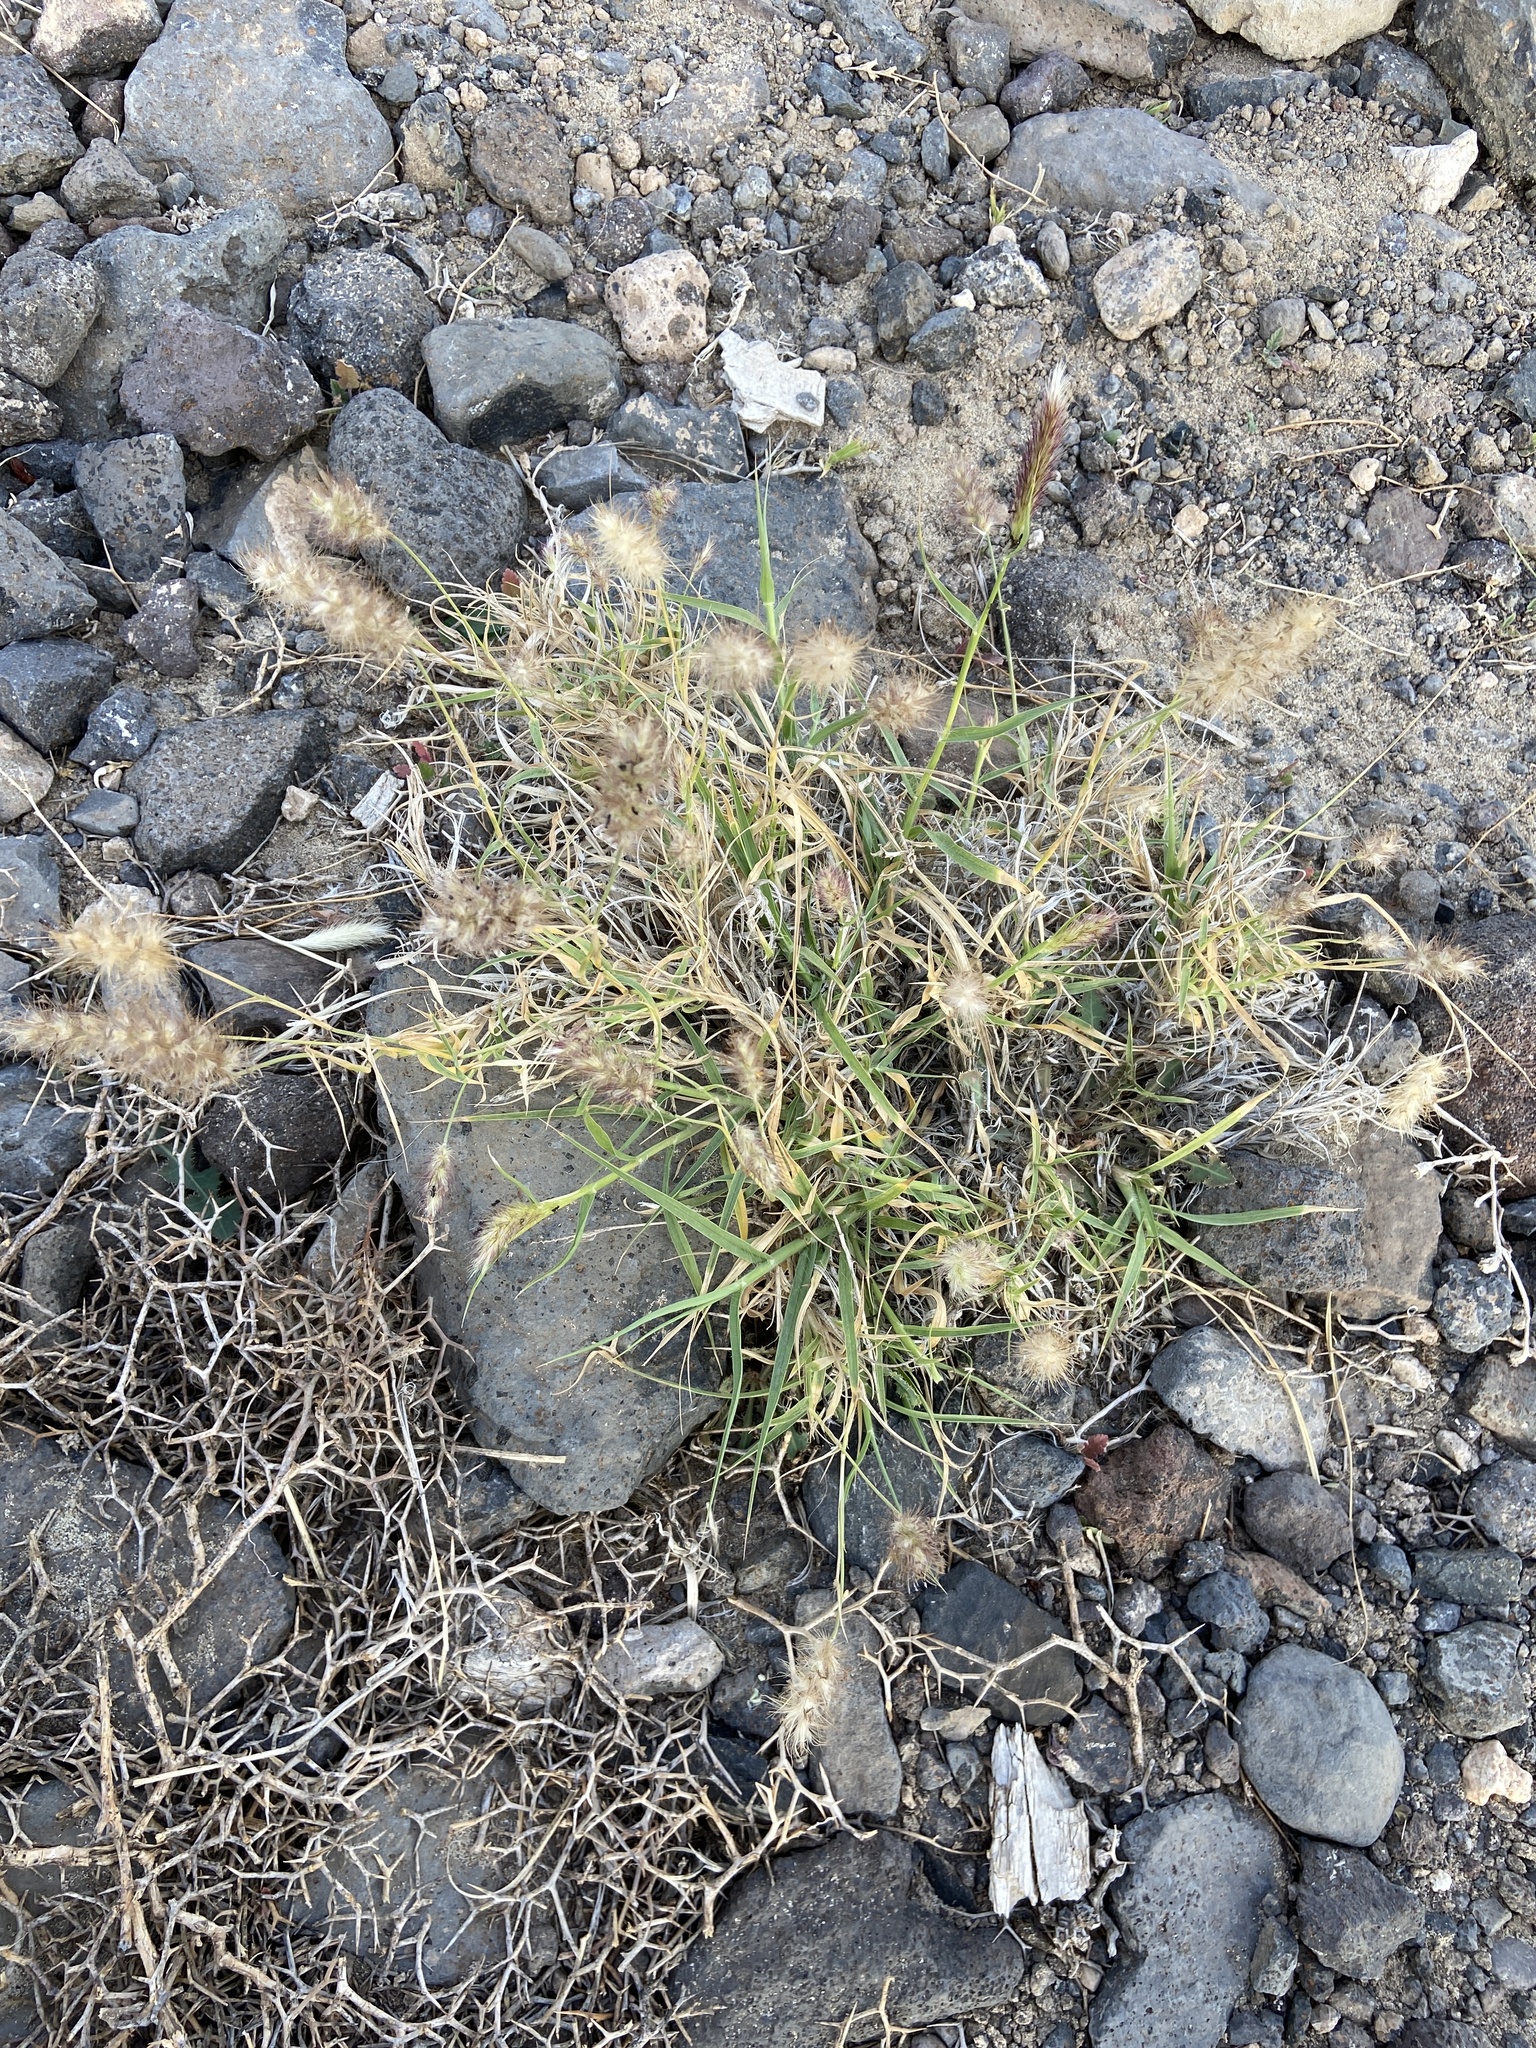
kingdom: Plantae
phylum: Tracheophyta
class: Liliopsida
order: Poales
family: Poaceae
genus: Cenchrus
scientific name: Cenchrus ciliaris
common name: Buffelgrass
